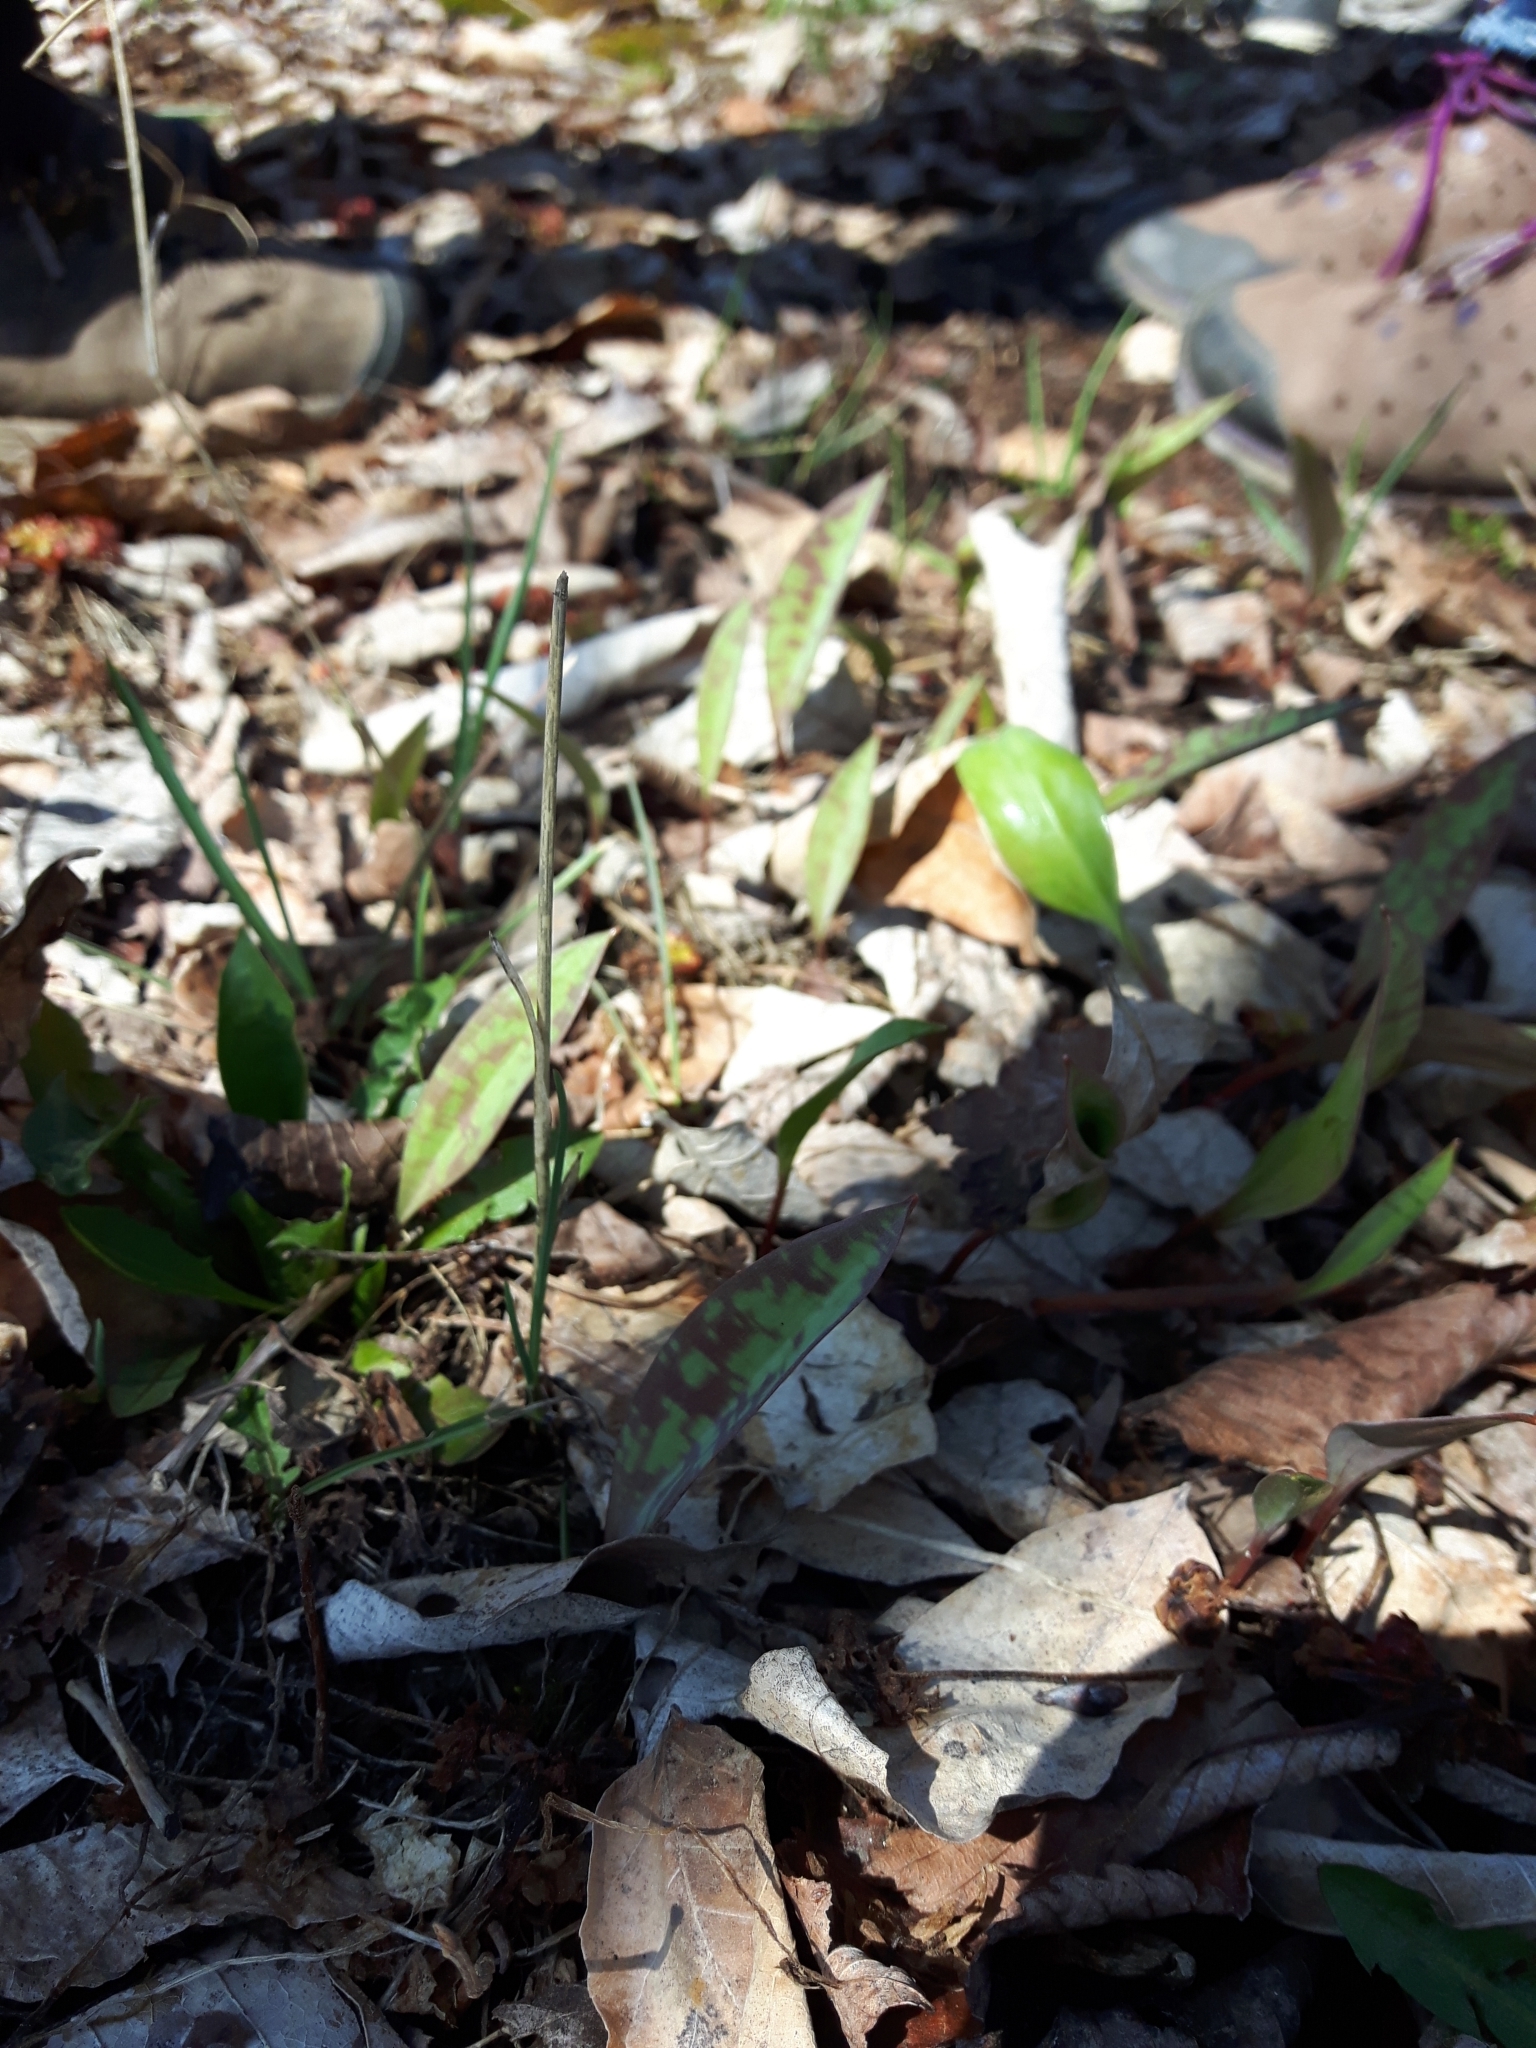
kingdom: Plantae
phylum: Tracheophyta
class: Liliopsida
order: Liliales
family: Liliaceae
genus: Erythronium
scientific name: Erythronium americanum
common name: Yellow adder's-tongue
